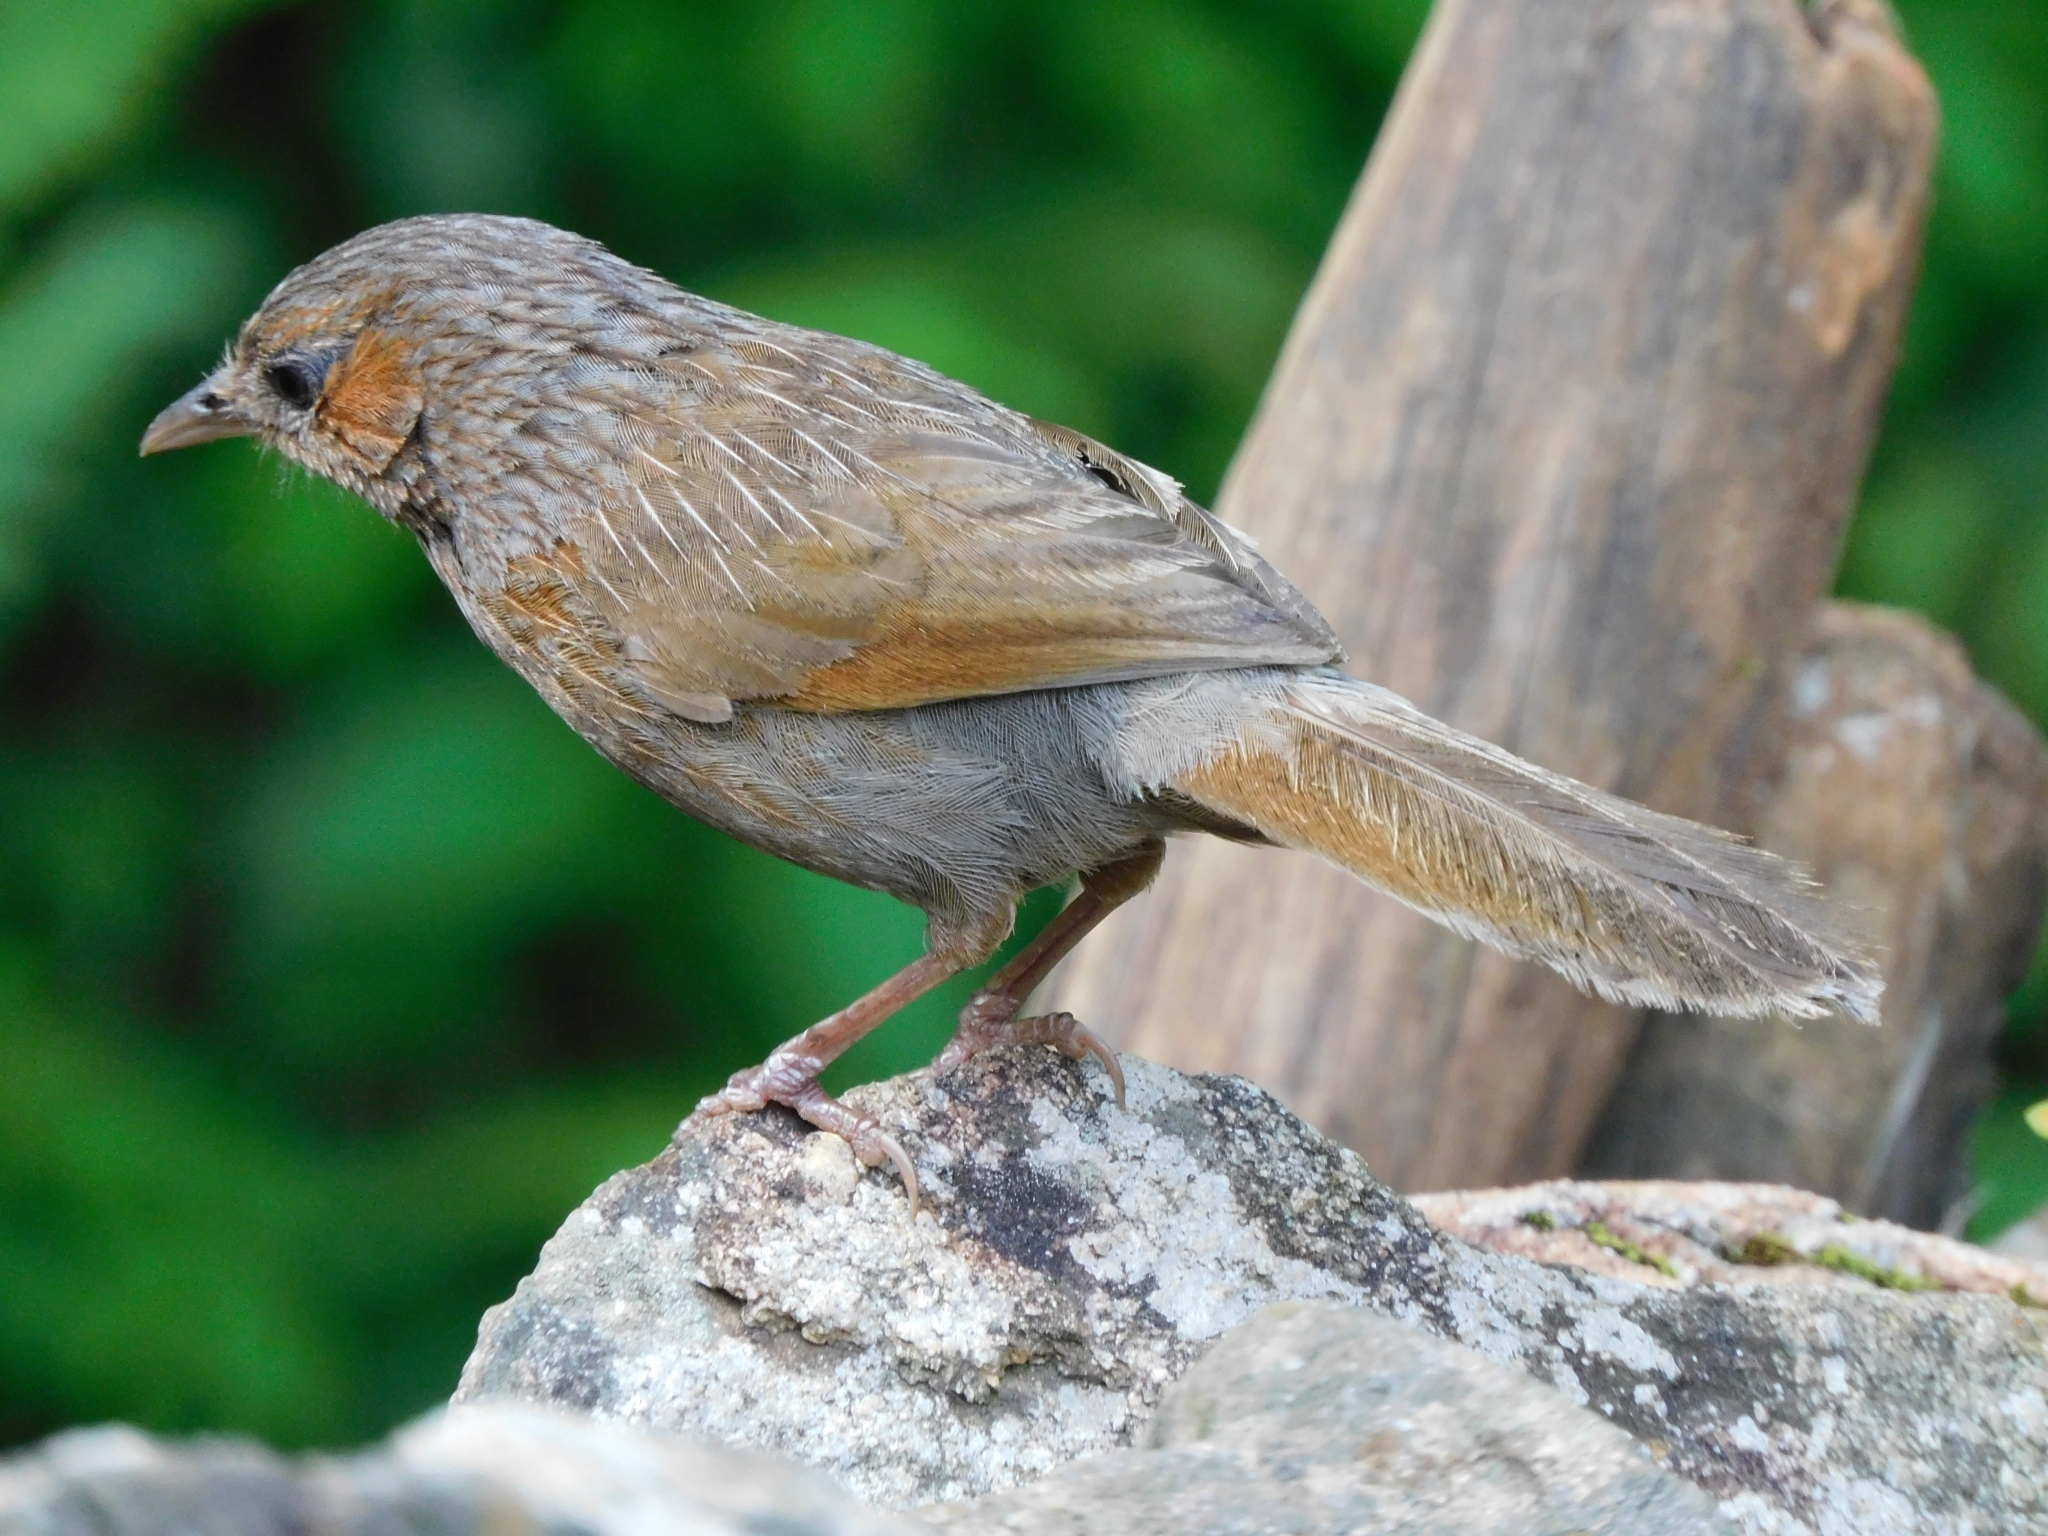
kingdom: Animalia
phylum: Chordata
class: Aves
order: Passeriformes
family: Leiothrichidae
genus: Trochalopteron
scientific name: Trochalopteron lineatum
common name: Streaked laughingthrush
